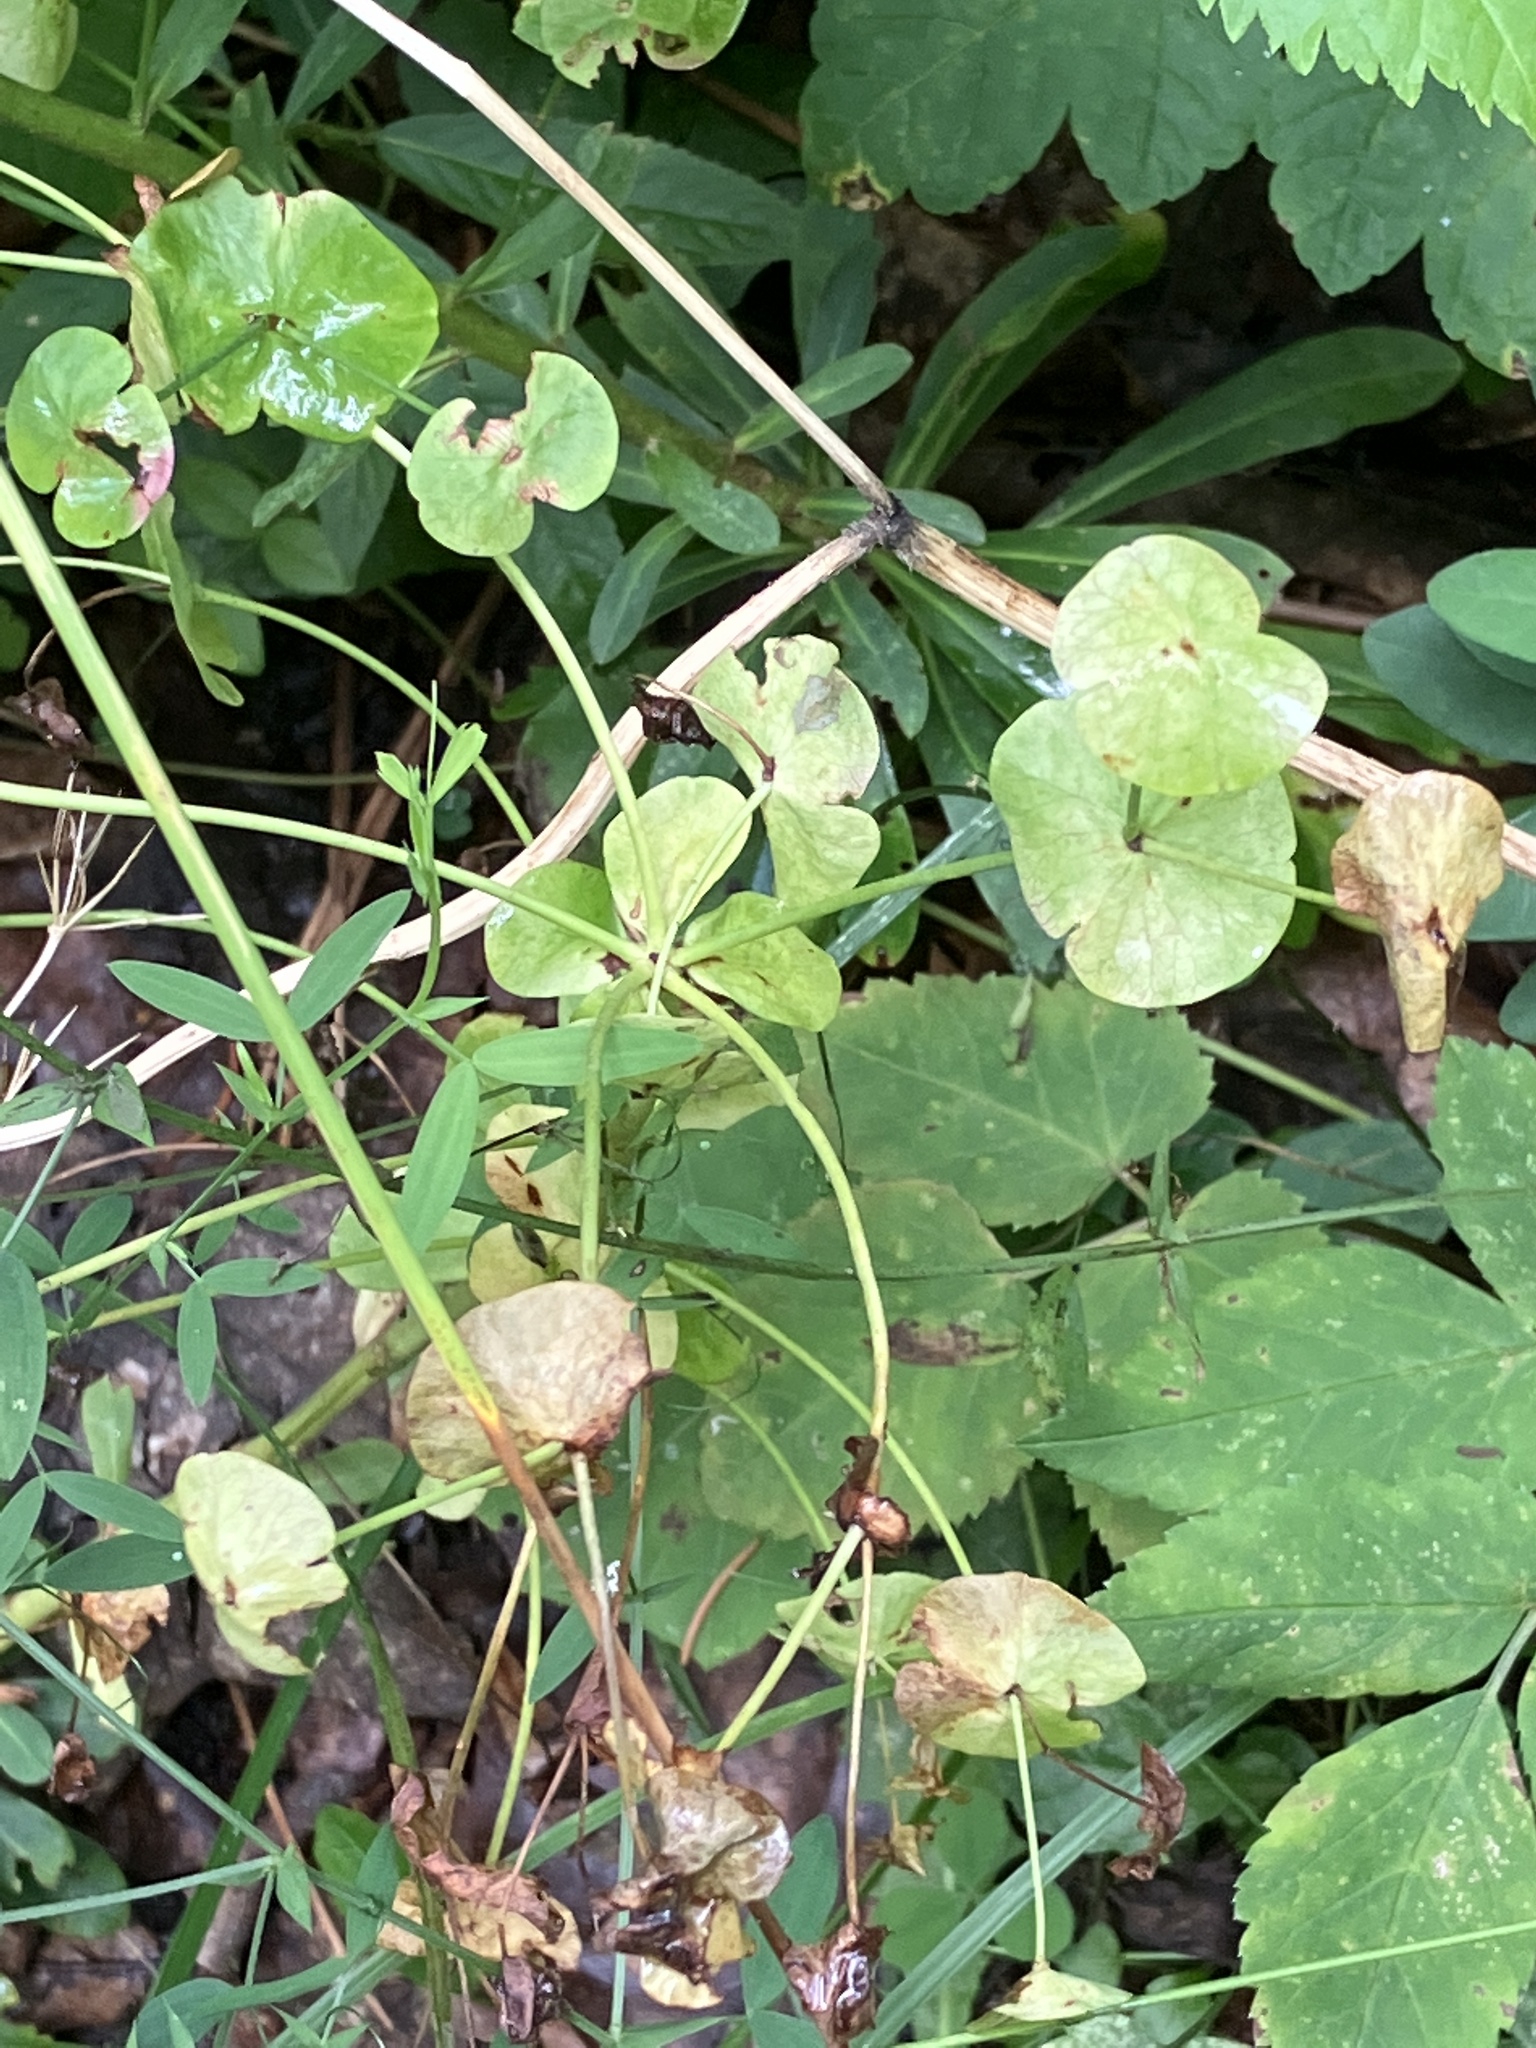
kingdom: Plantae
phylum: Tracheophyta
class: Magnoliopsida
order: Malpighiales
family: Euphorbiaceae
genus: Euphorbia
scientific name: Euphorbia amygdaloides
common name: Wood spurge
